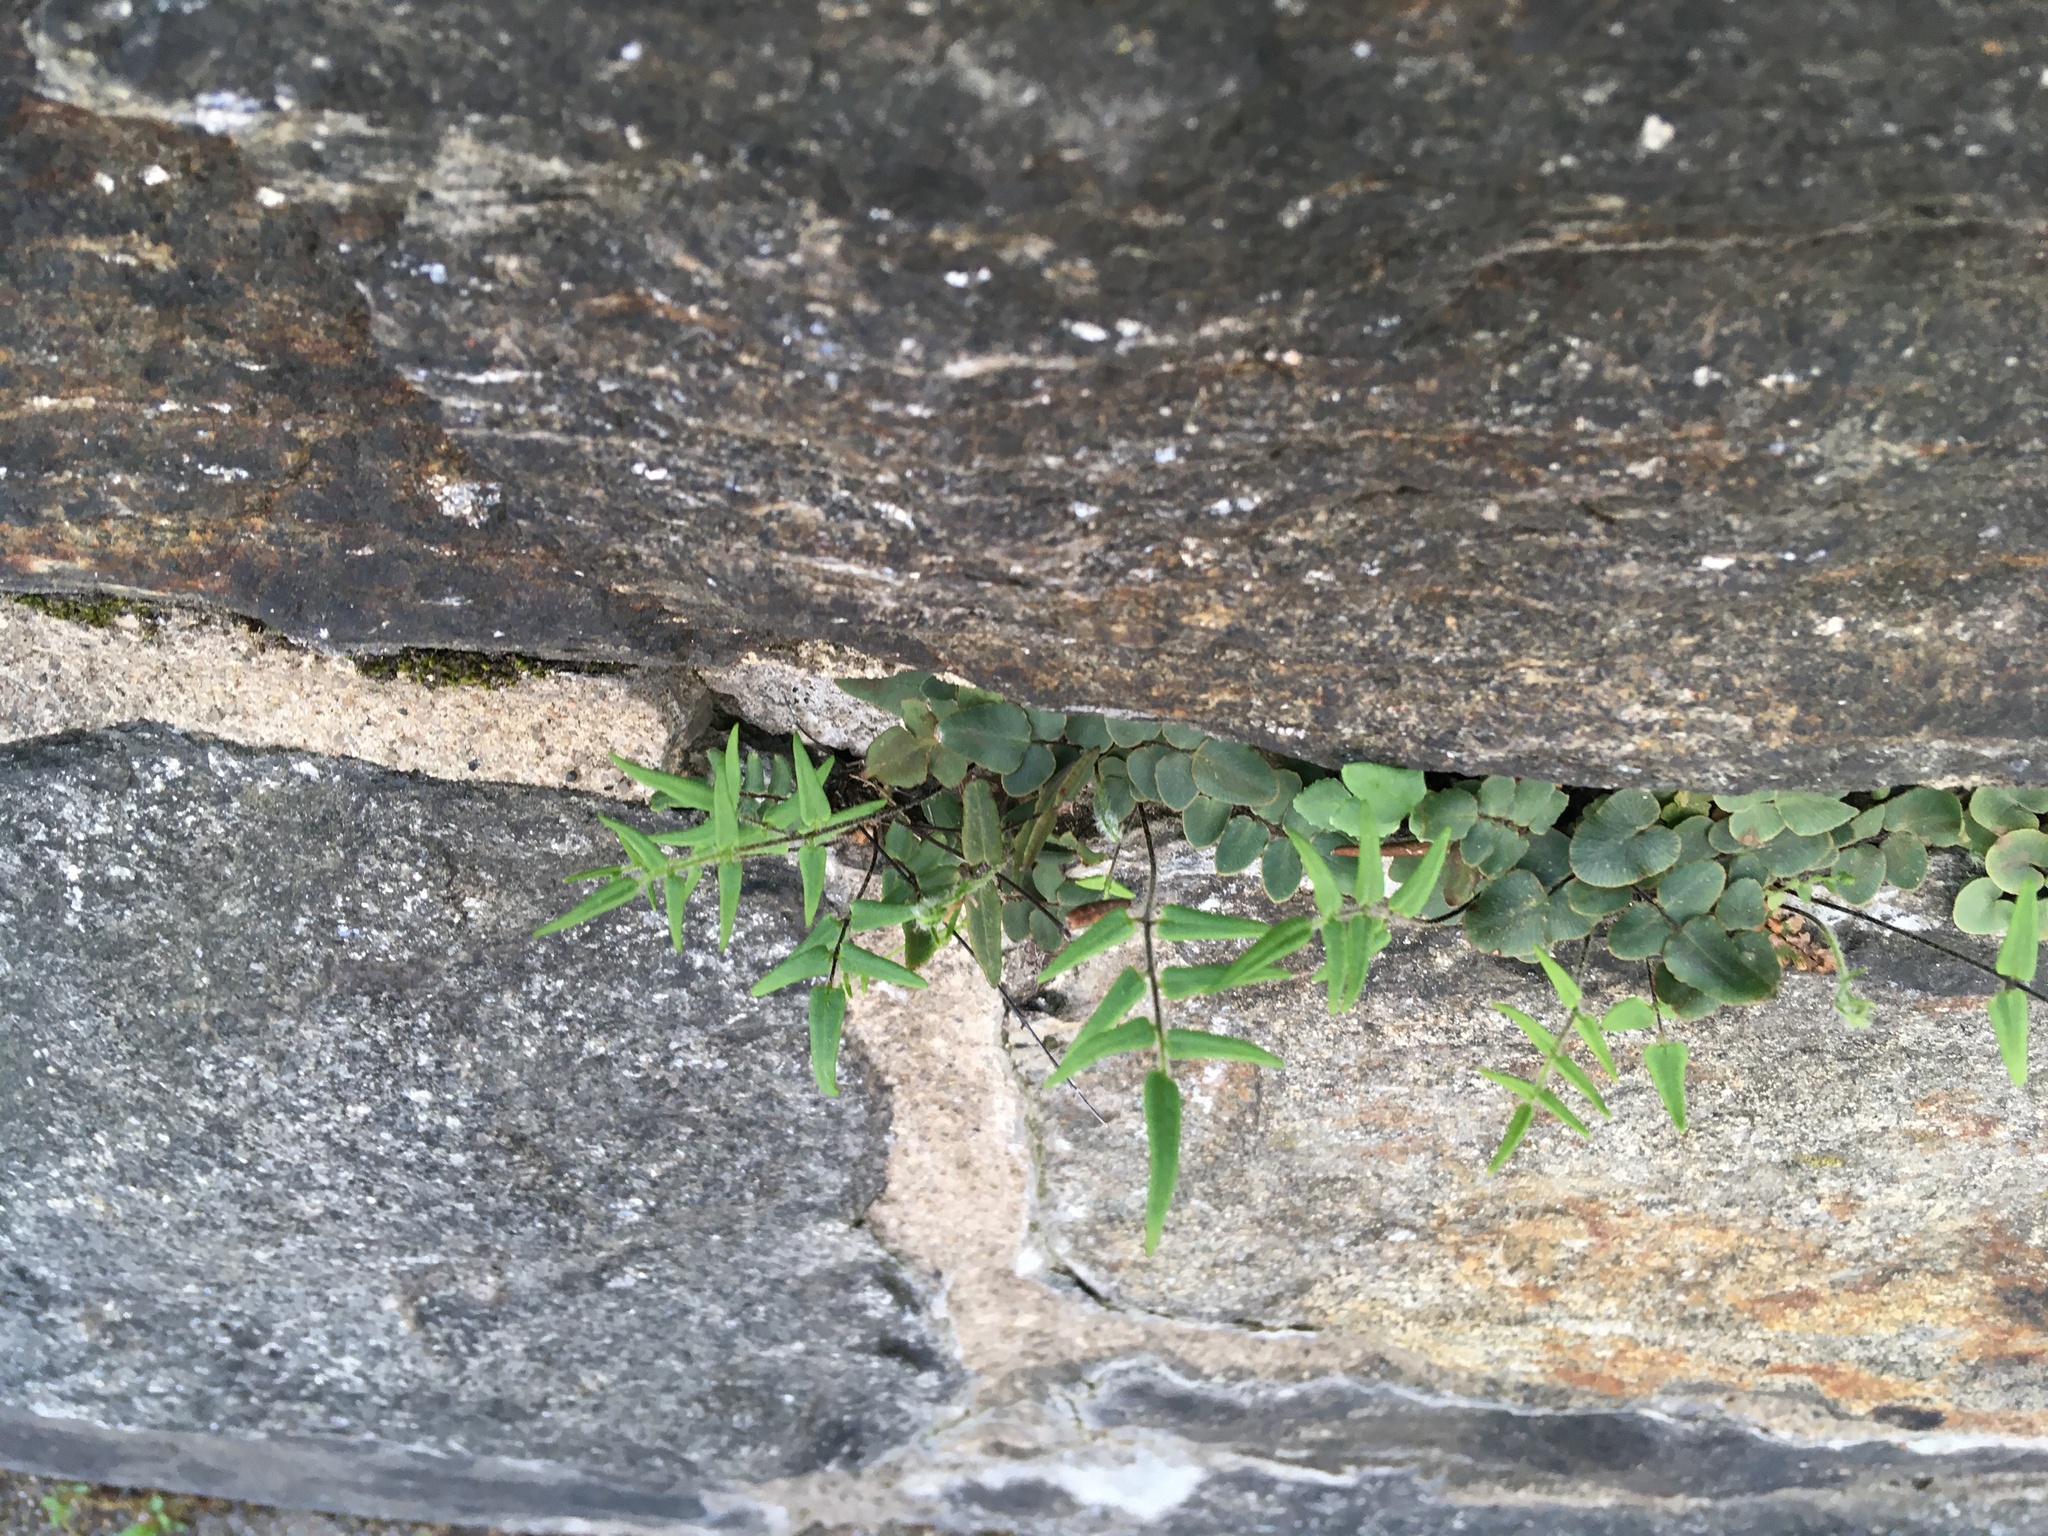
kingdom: Plantae
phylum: Tracheophyta
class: Polypodiopsida
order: Polypodiales
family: Pteridaceae
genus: Pellaea
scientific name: Pellaea atropurpurea
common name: Hairy cliffbrake
